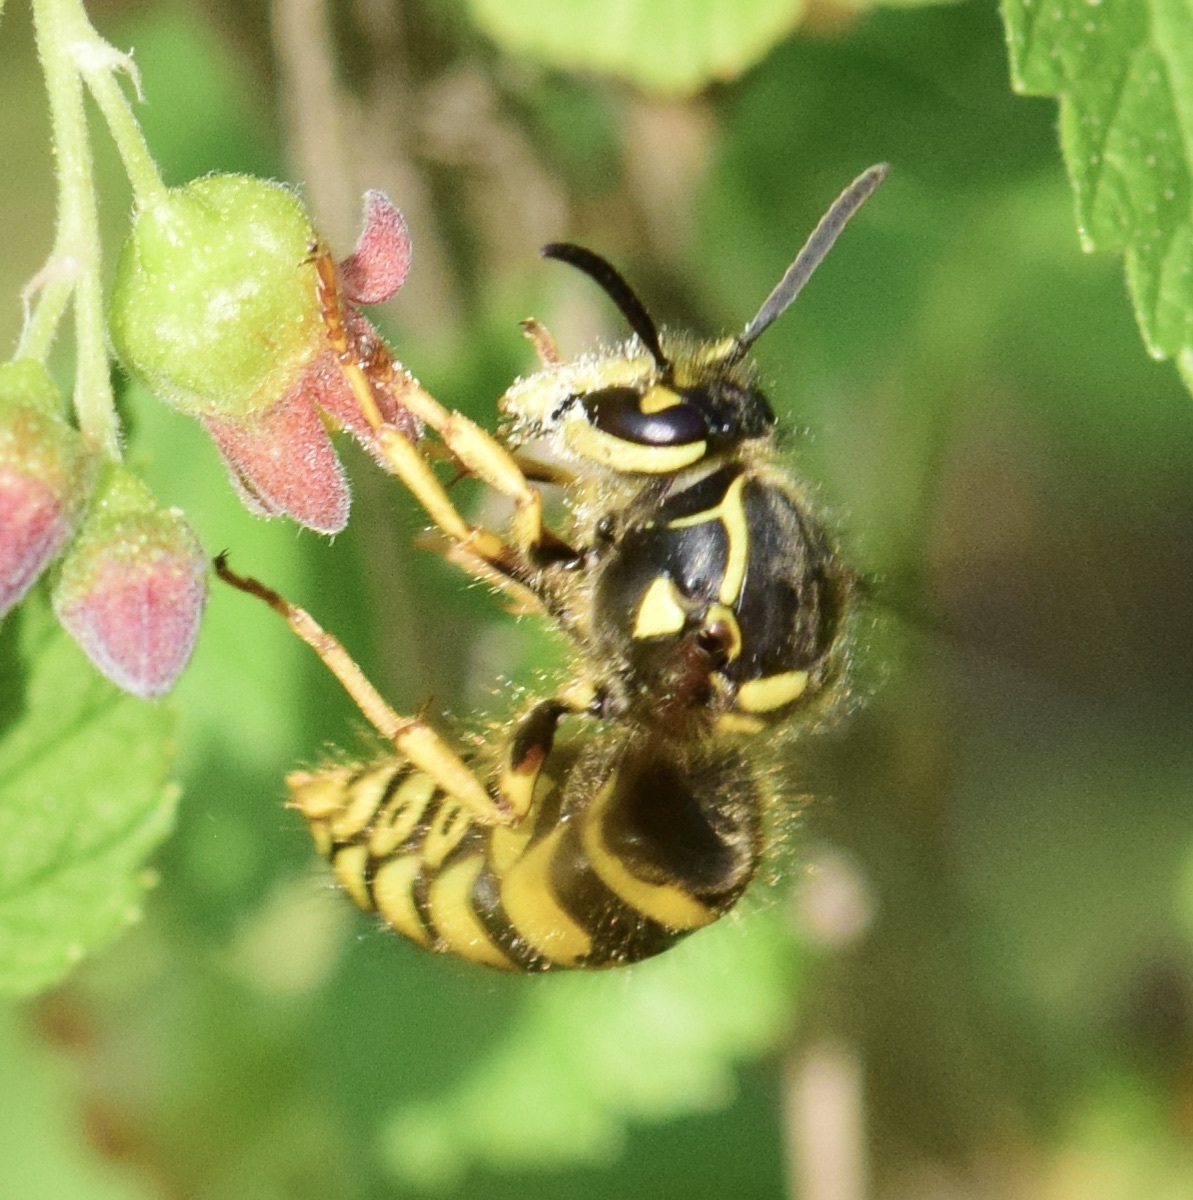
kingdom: Animalia
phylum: Arthropoda
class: Insecta
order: Hymenoptera
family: Vespidae
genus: Dolichovespula
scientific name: Dolichovespula arenaria
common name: Aerial yellowjacket
